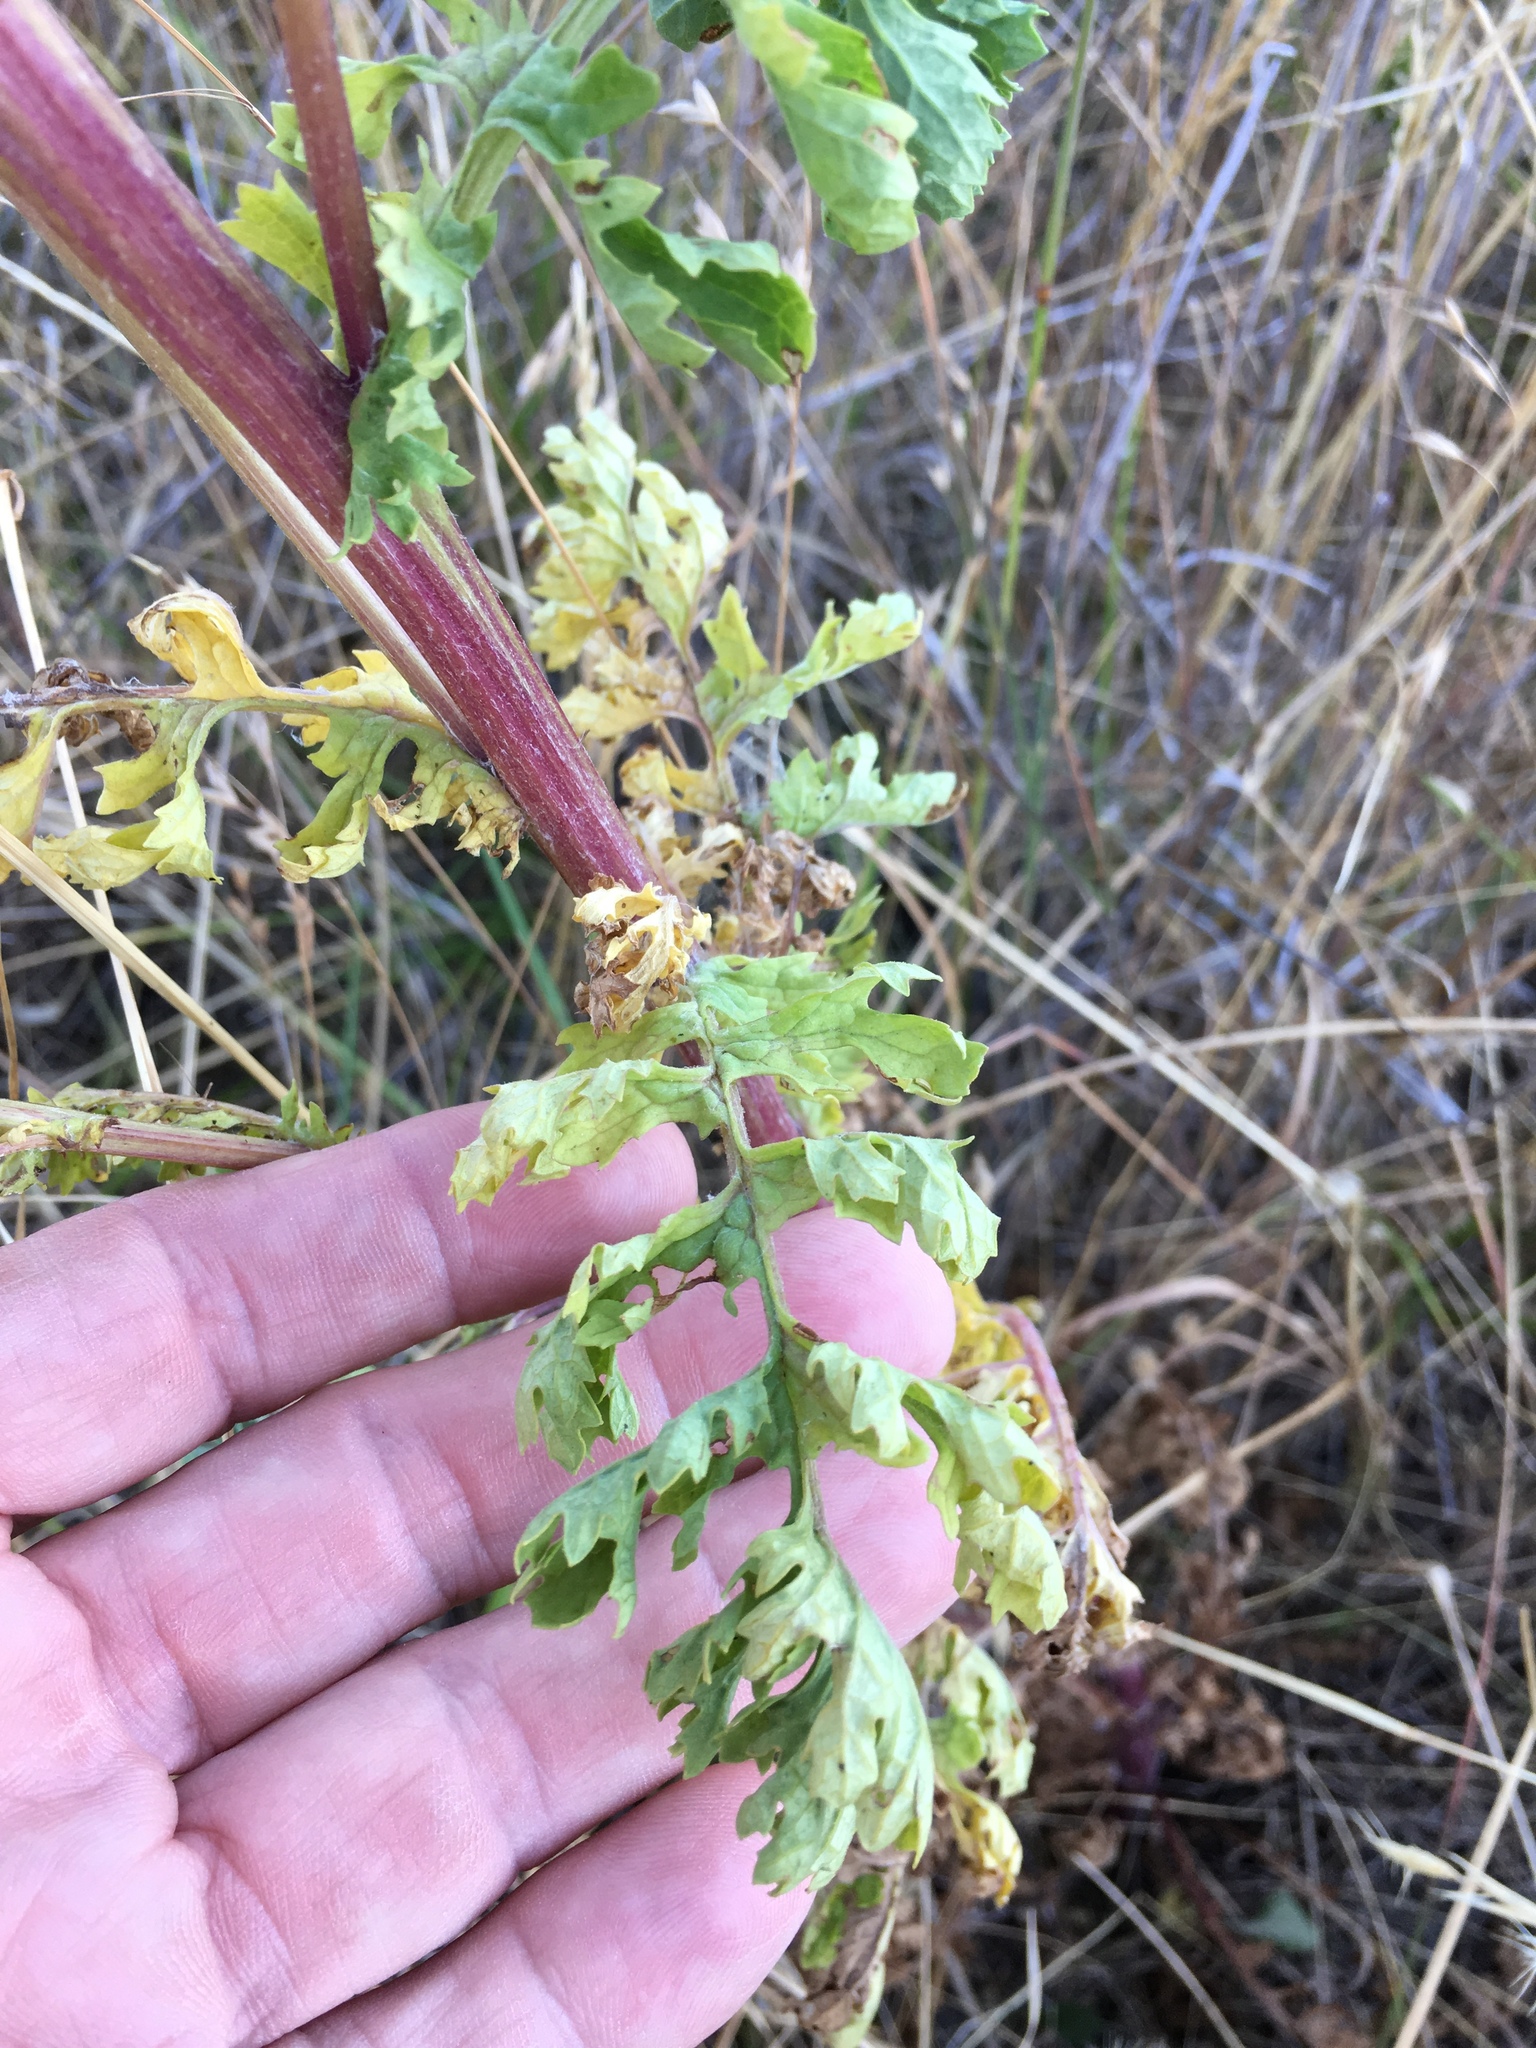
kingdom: Plantae
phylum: Tracheophyta
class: Magnoliopsida
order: Asterales
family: Asteraceae
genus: Jacobaea
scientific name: Jacobaea vulgaris
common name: Stinking willie
